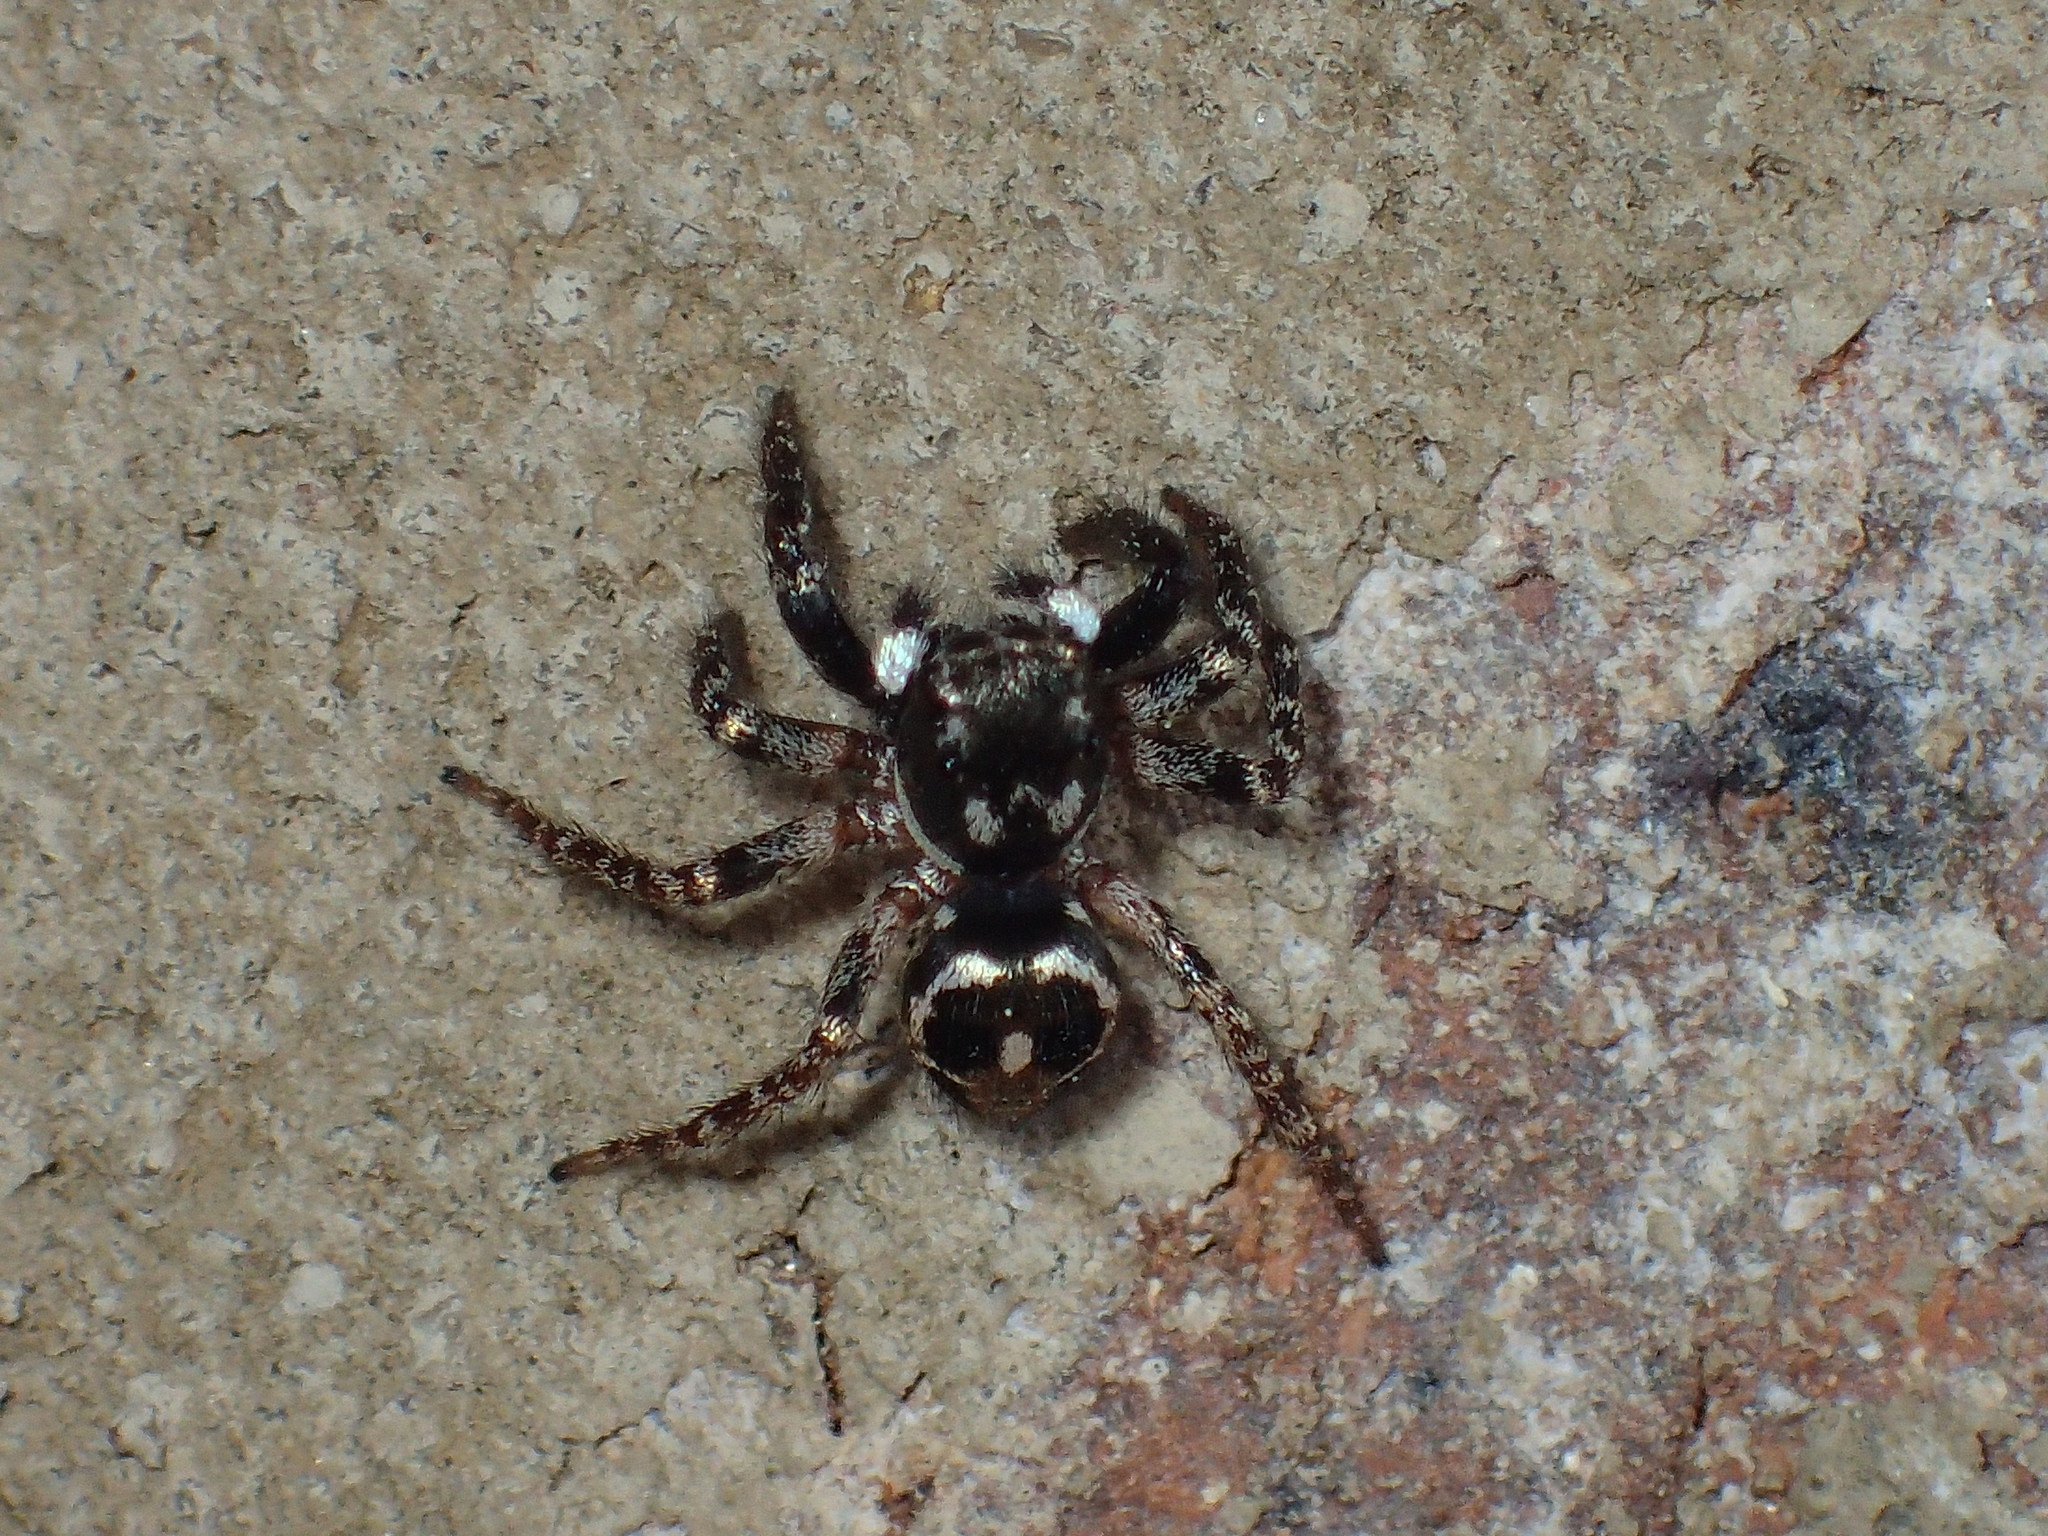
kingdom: Animalia
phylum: Arthropoda
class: Arachnida
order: Araneae
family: Salticidae
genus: Anasaitis
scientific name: Anasaitis canosa
